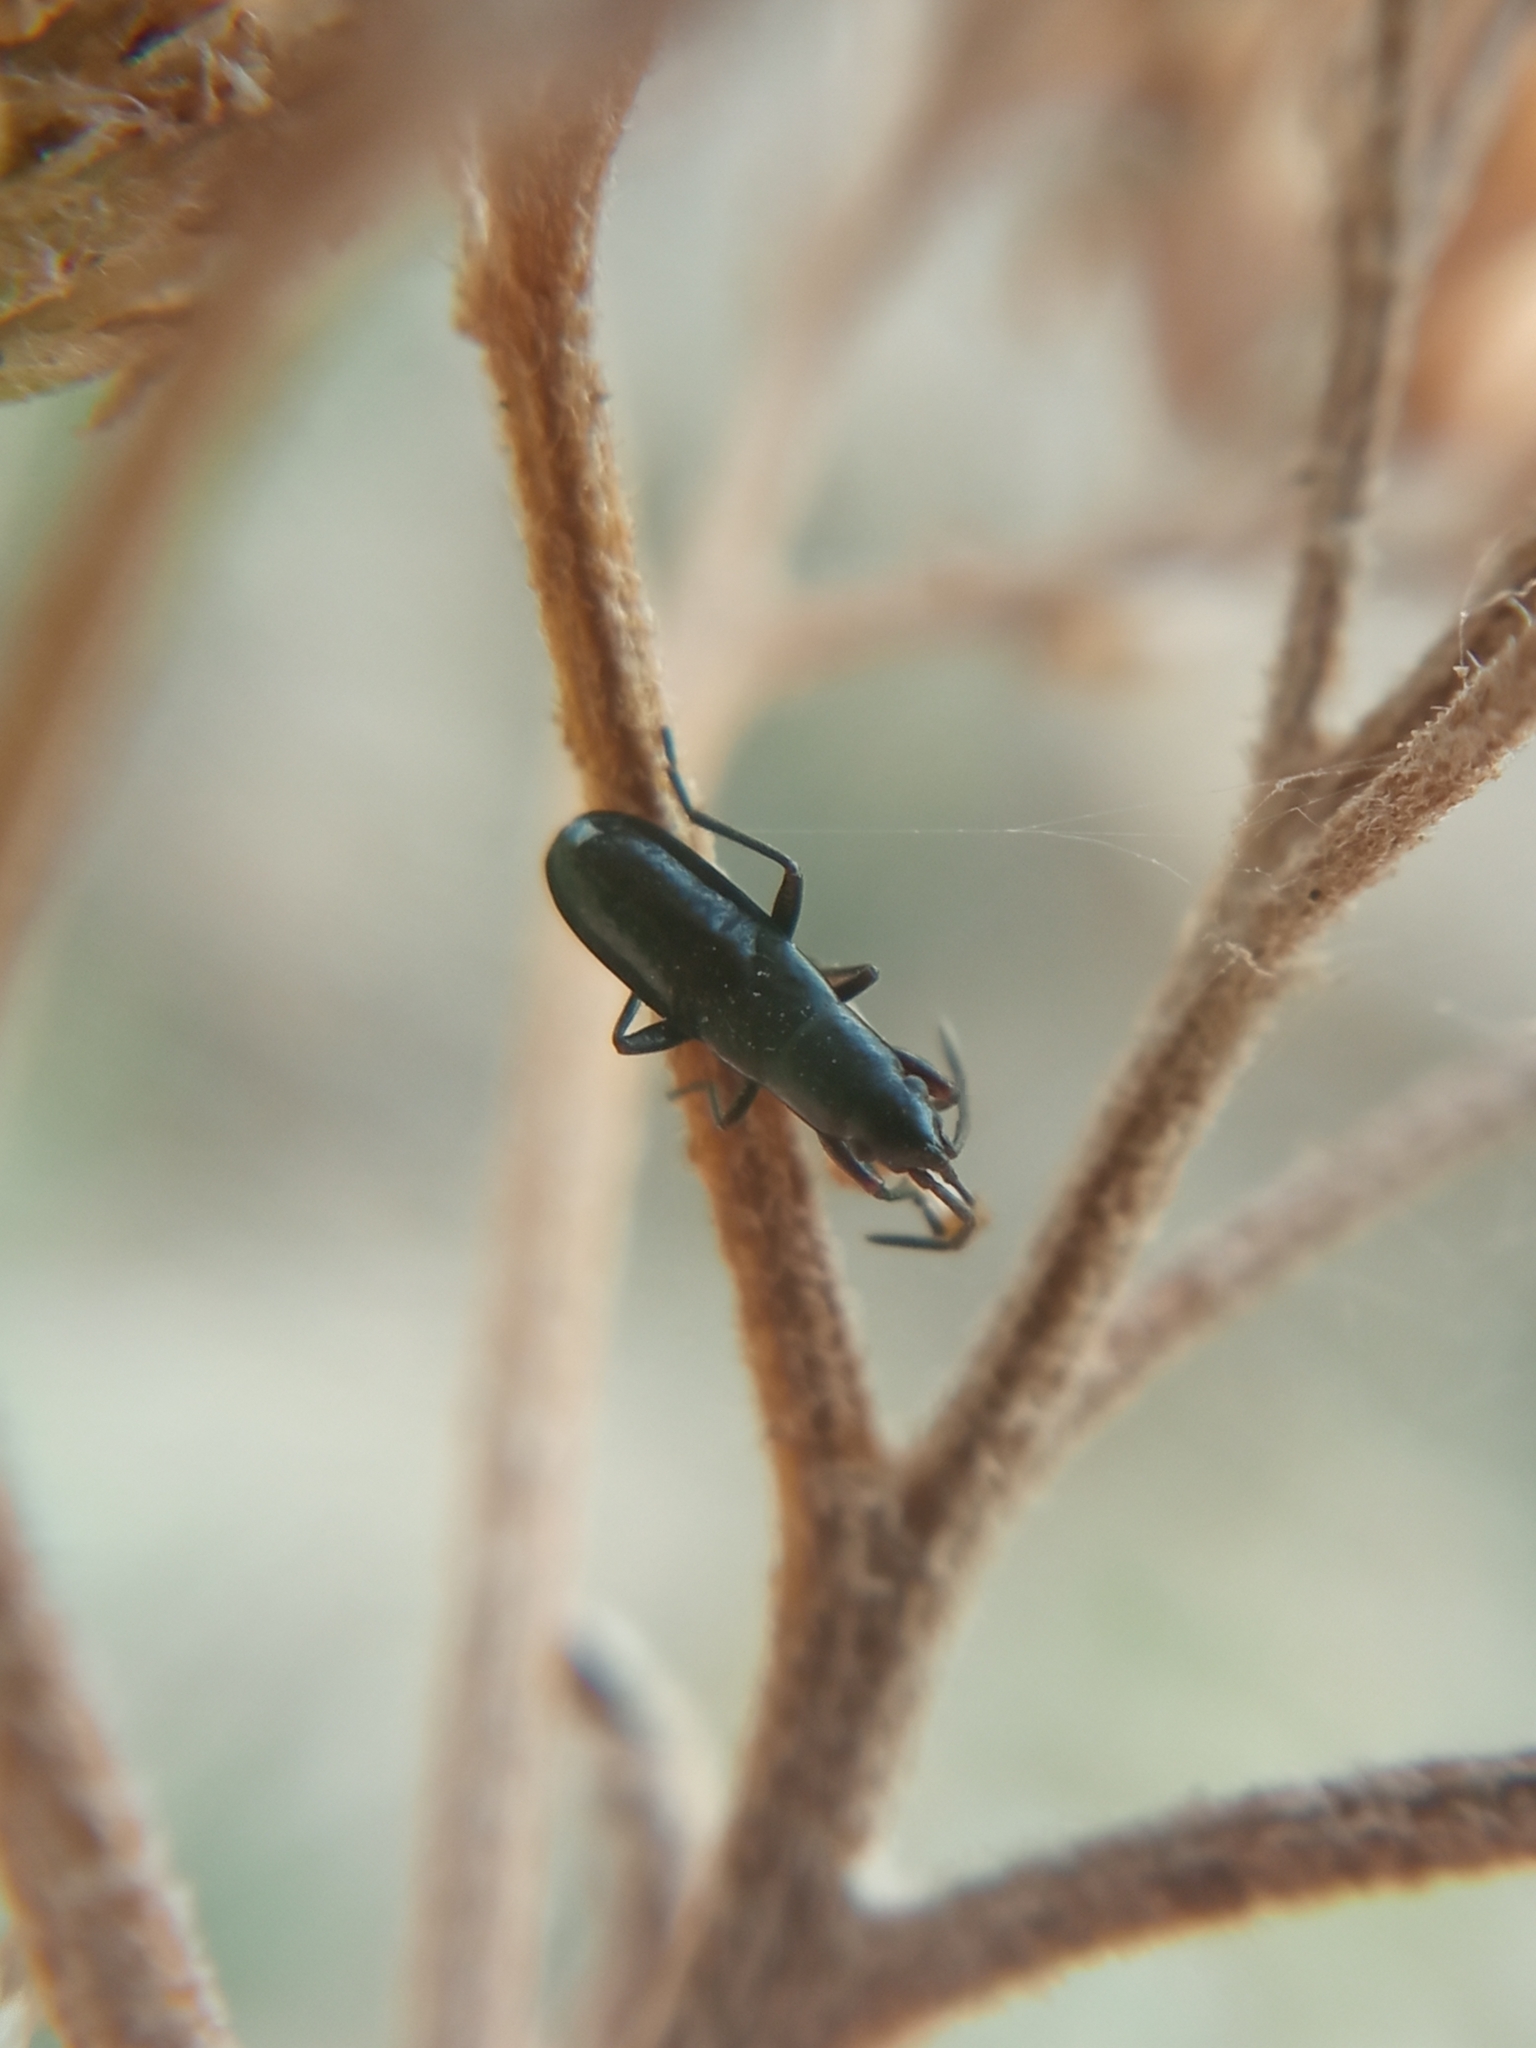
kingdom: Animalia
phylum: Arthropoda
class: Insecta
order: Hemiptera
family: Rhyparochromidae
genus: Pterotmetus
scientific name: Pterotmetus staphyliniformis
